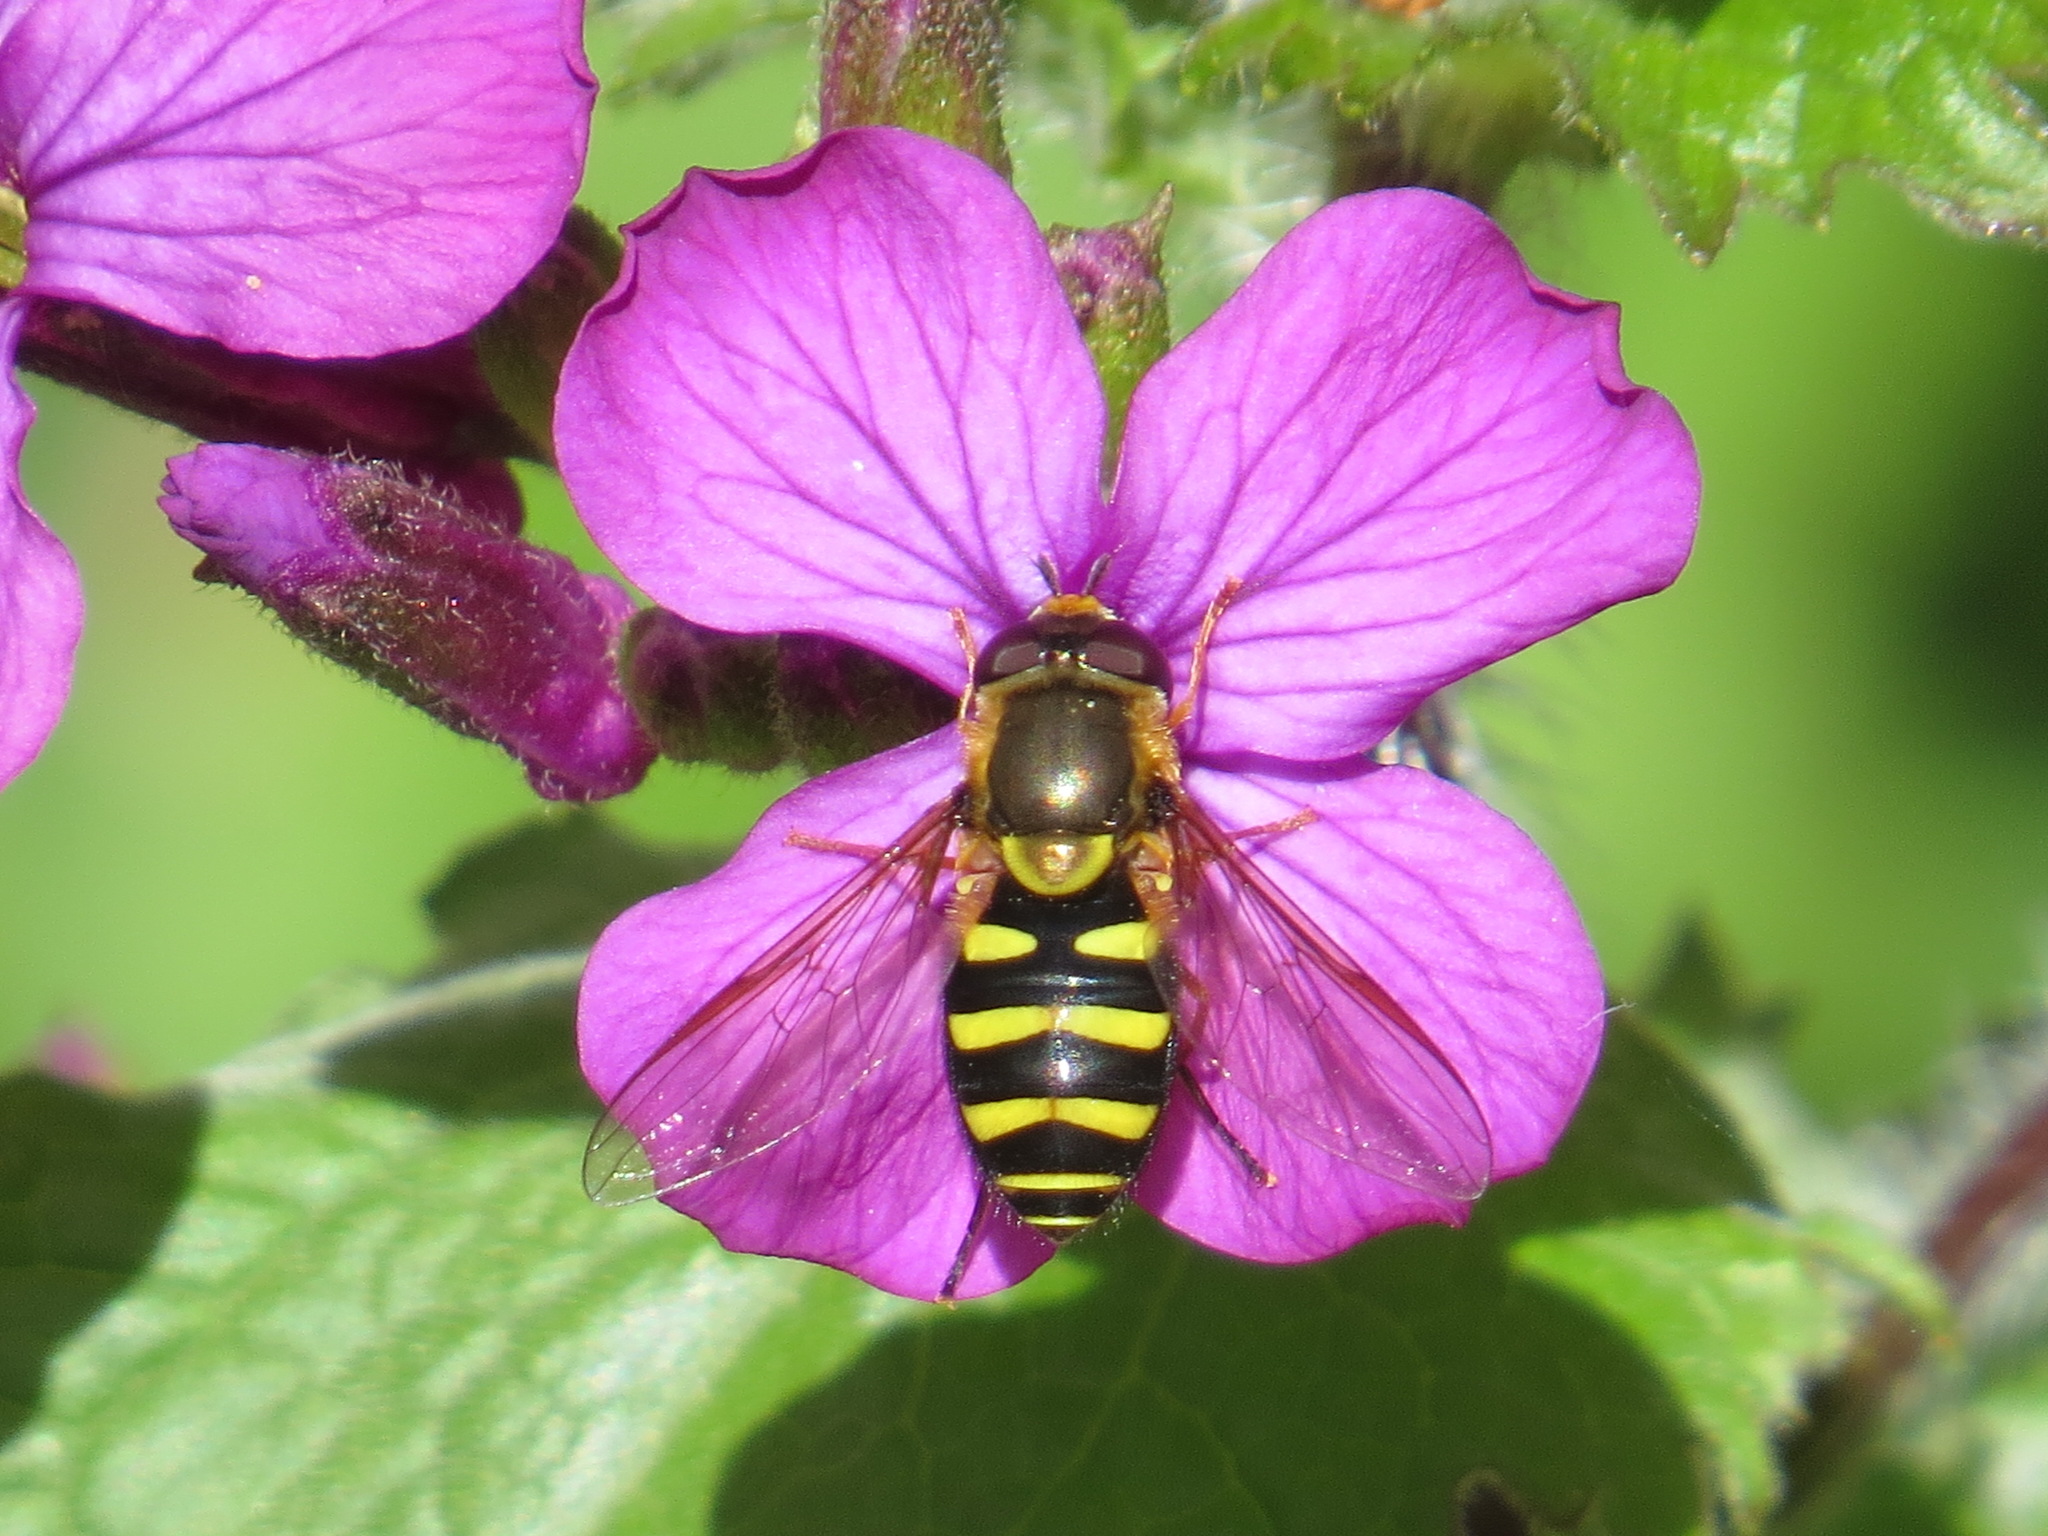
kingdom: Animalia
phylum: Arthropoda
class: Insecta
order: Diptera
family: Syrphidae
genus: Syrphus
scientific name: Syrphus opinator
